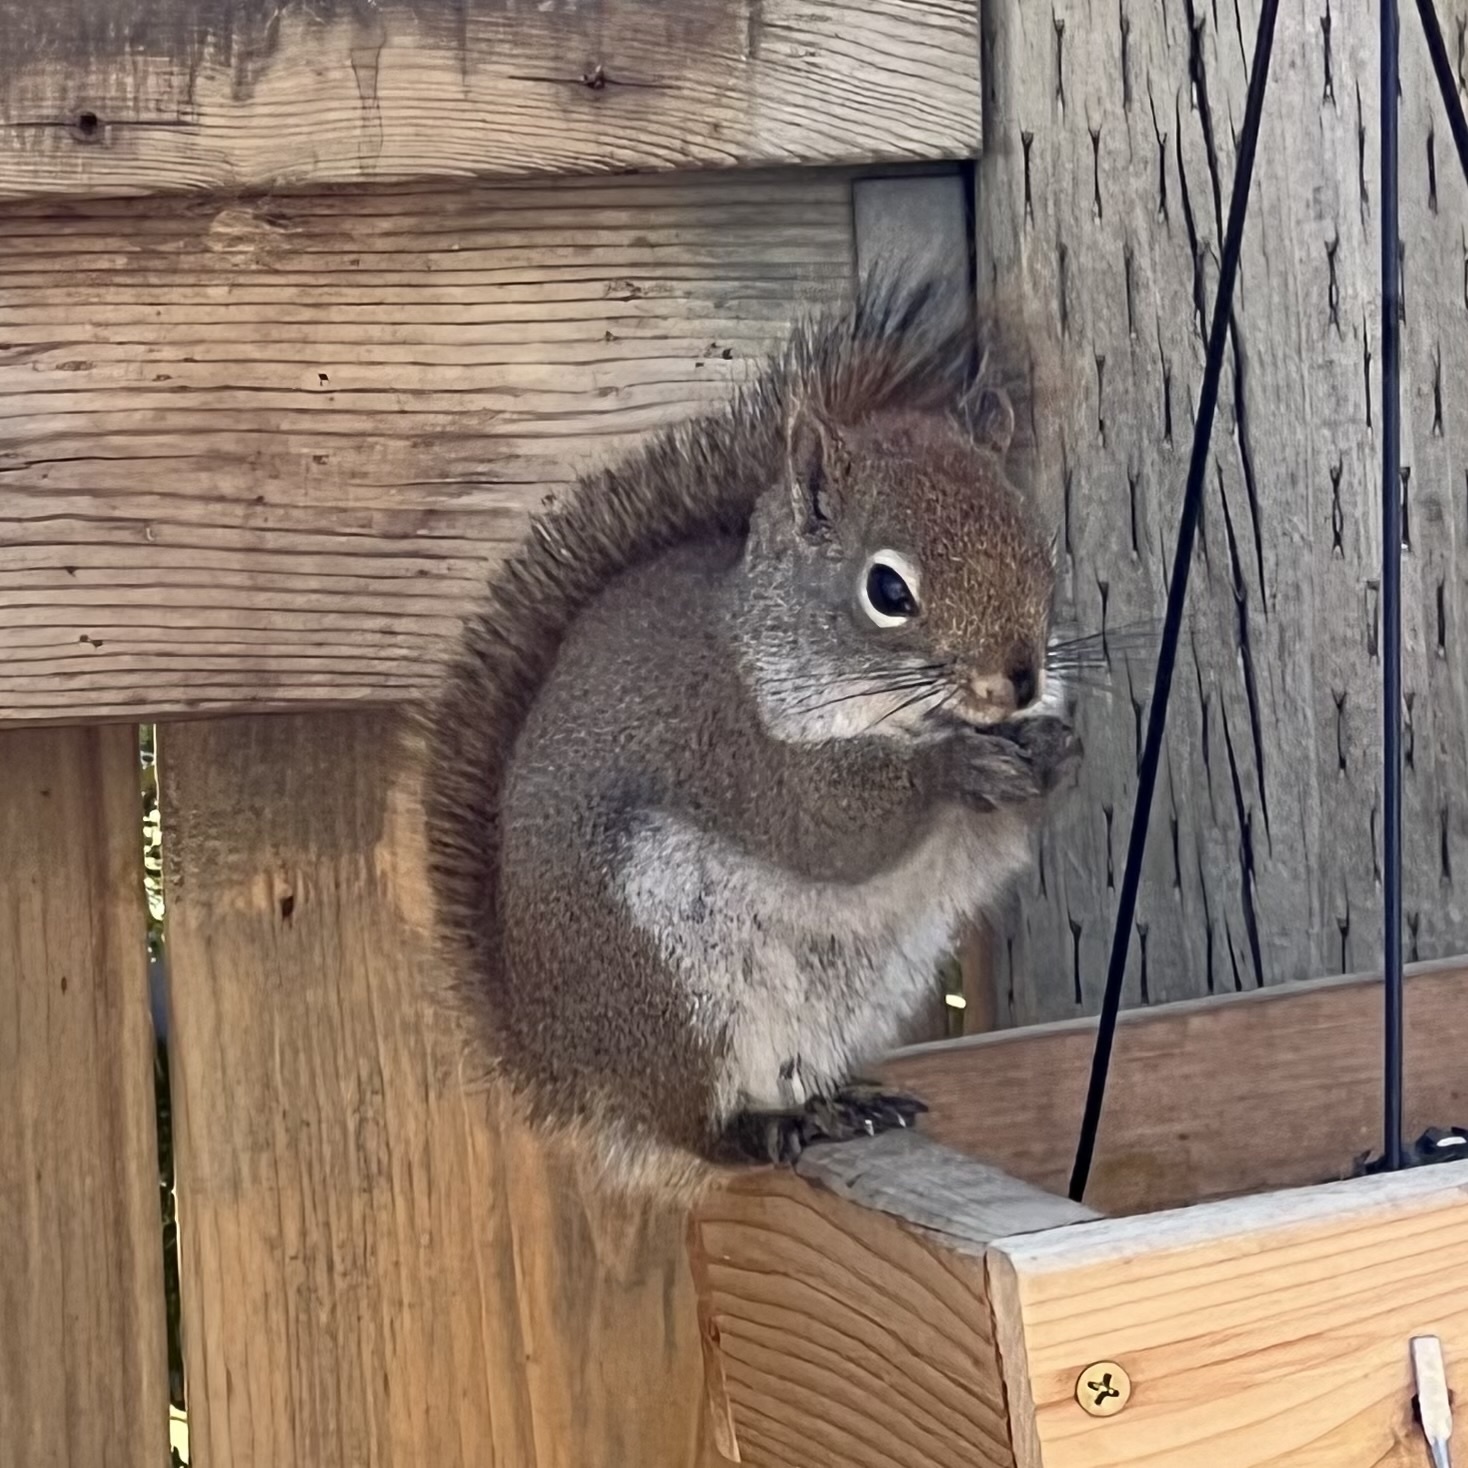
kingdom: Animalia
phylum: Chordata
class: Mammalia
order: Rodentia
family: Sciuridae
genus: Tamiasciurus
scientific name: Tamiasciurus hudsonicus
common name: Red squirrel
